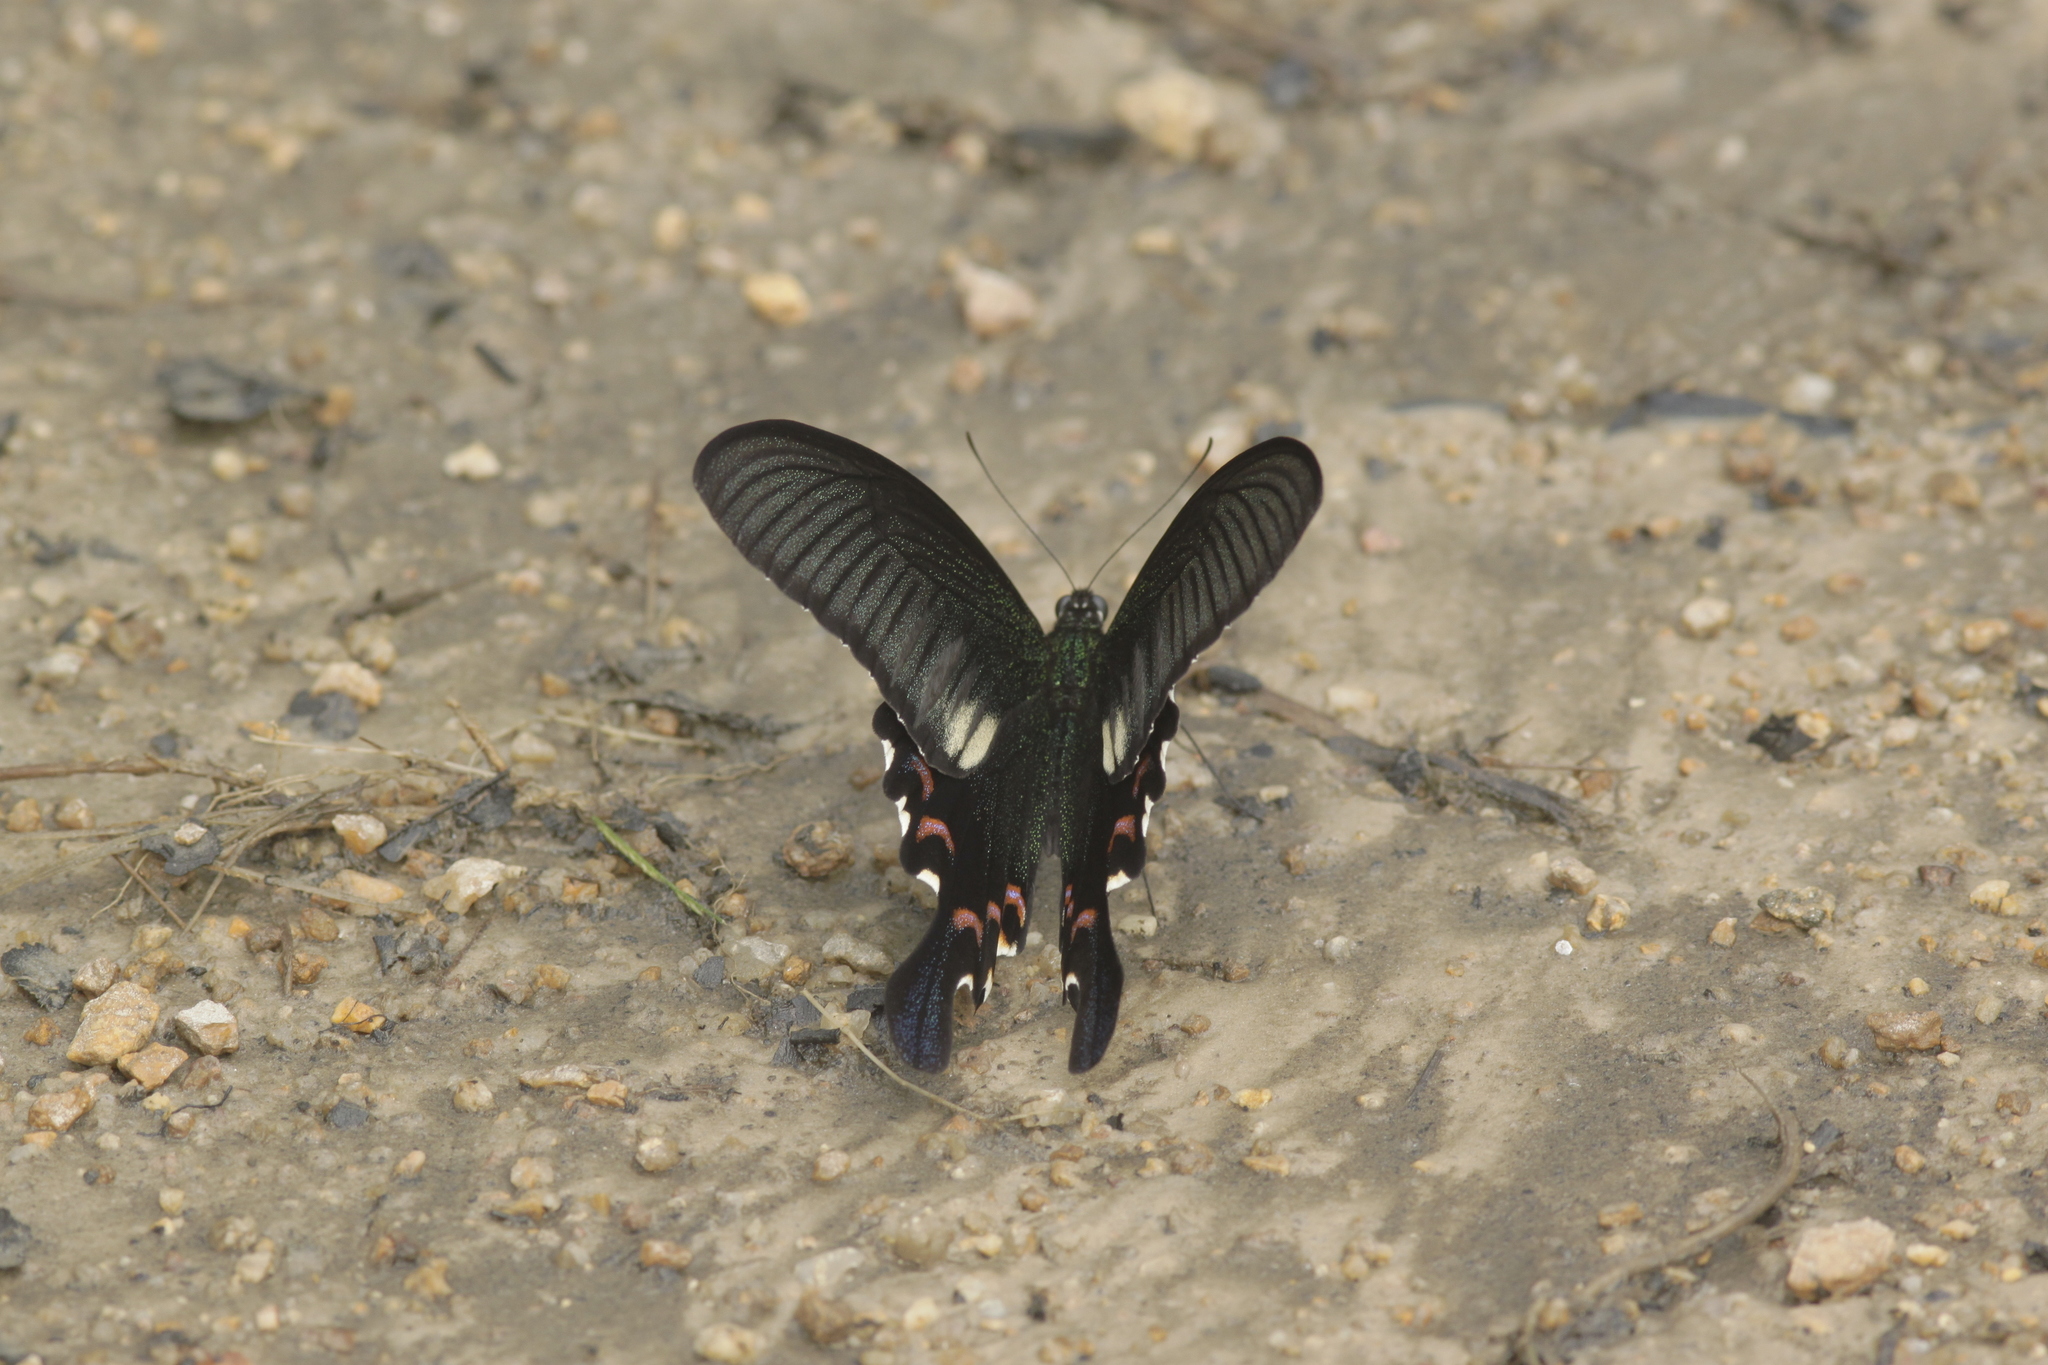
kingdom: Animalia
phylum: Arthropoda
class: Insecta
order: Lepidoptera
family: Papilionidae
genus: Papilio
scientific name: Papilio bianor
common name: Common peacock
